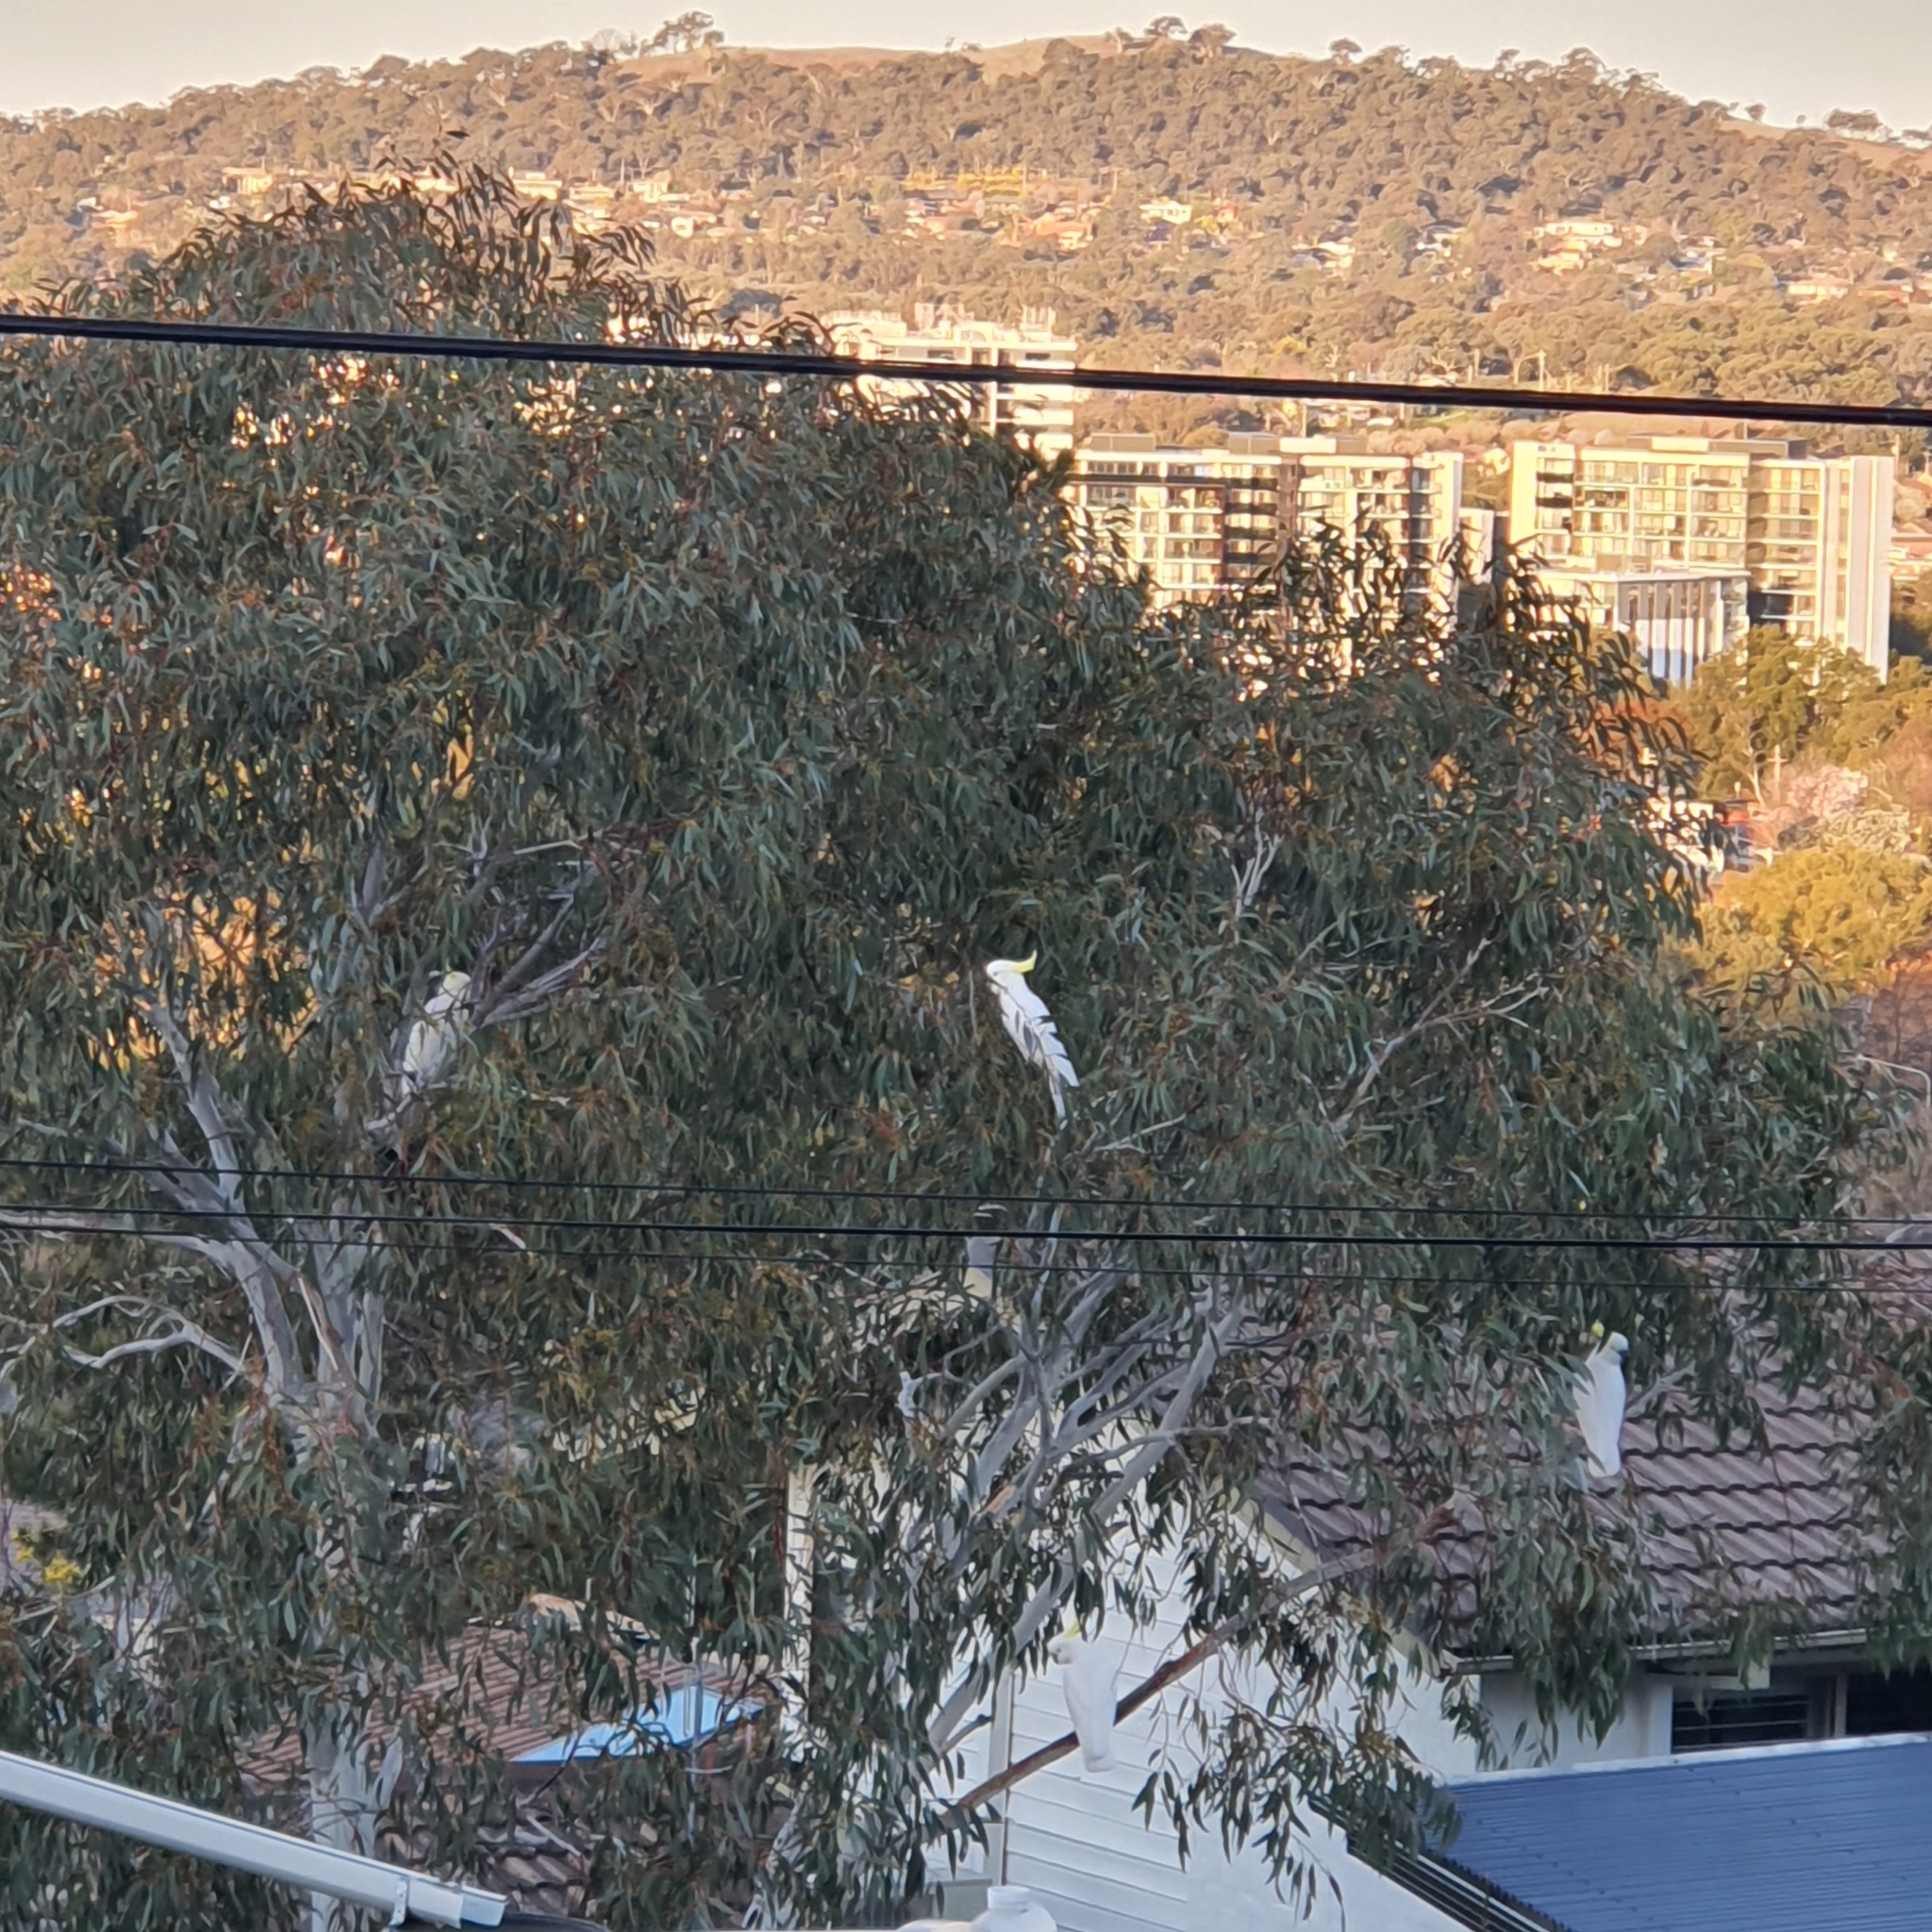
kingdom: Animalia
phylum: Chordata
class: Aves
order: Psittaciformes
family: Psittacidae
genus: Cacatua
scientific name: Cacatua galerita
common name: Sulphur-crested cockatoo
